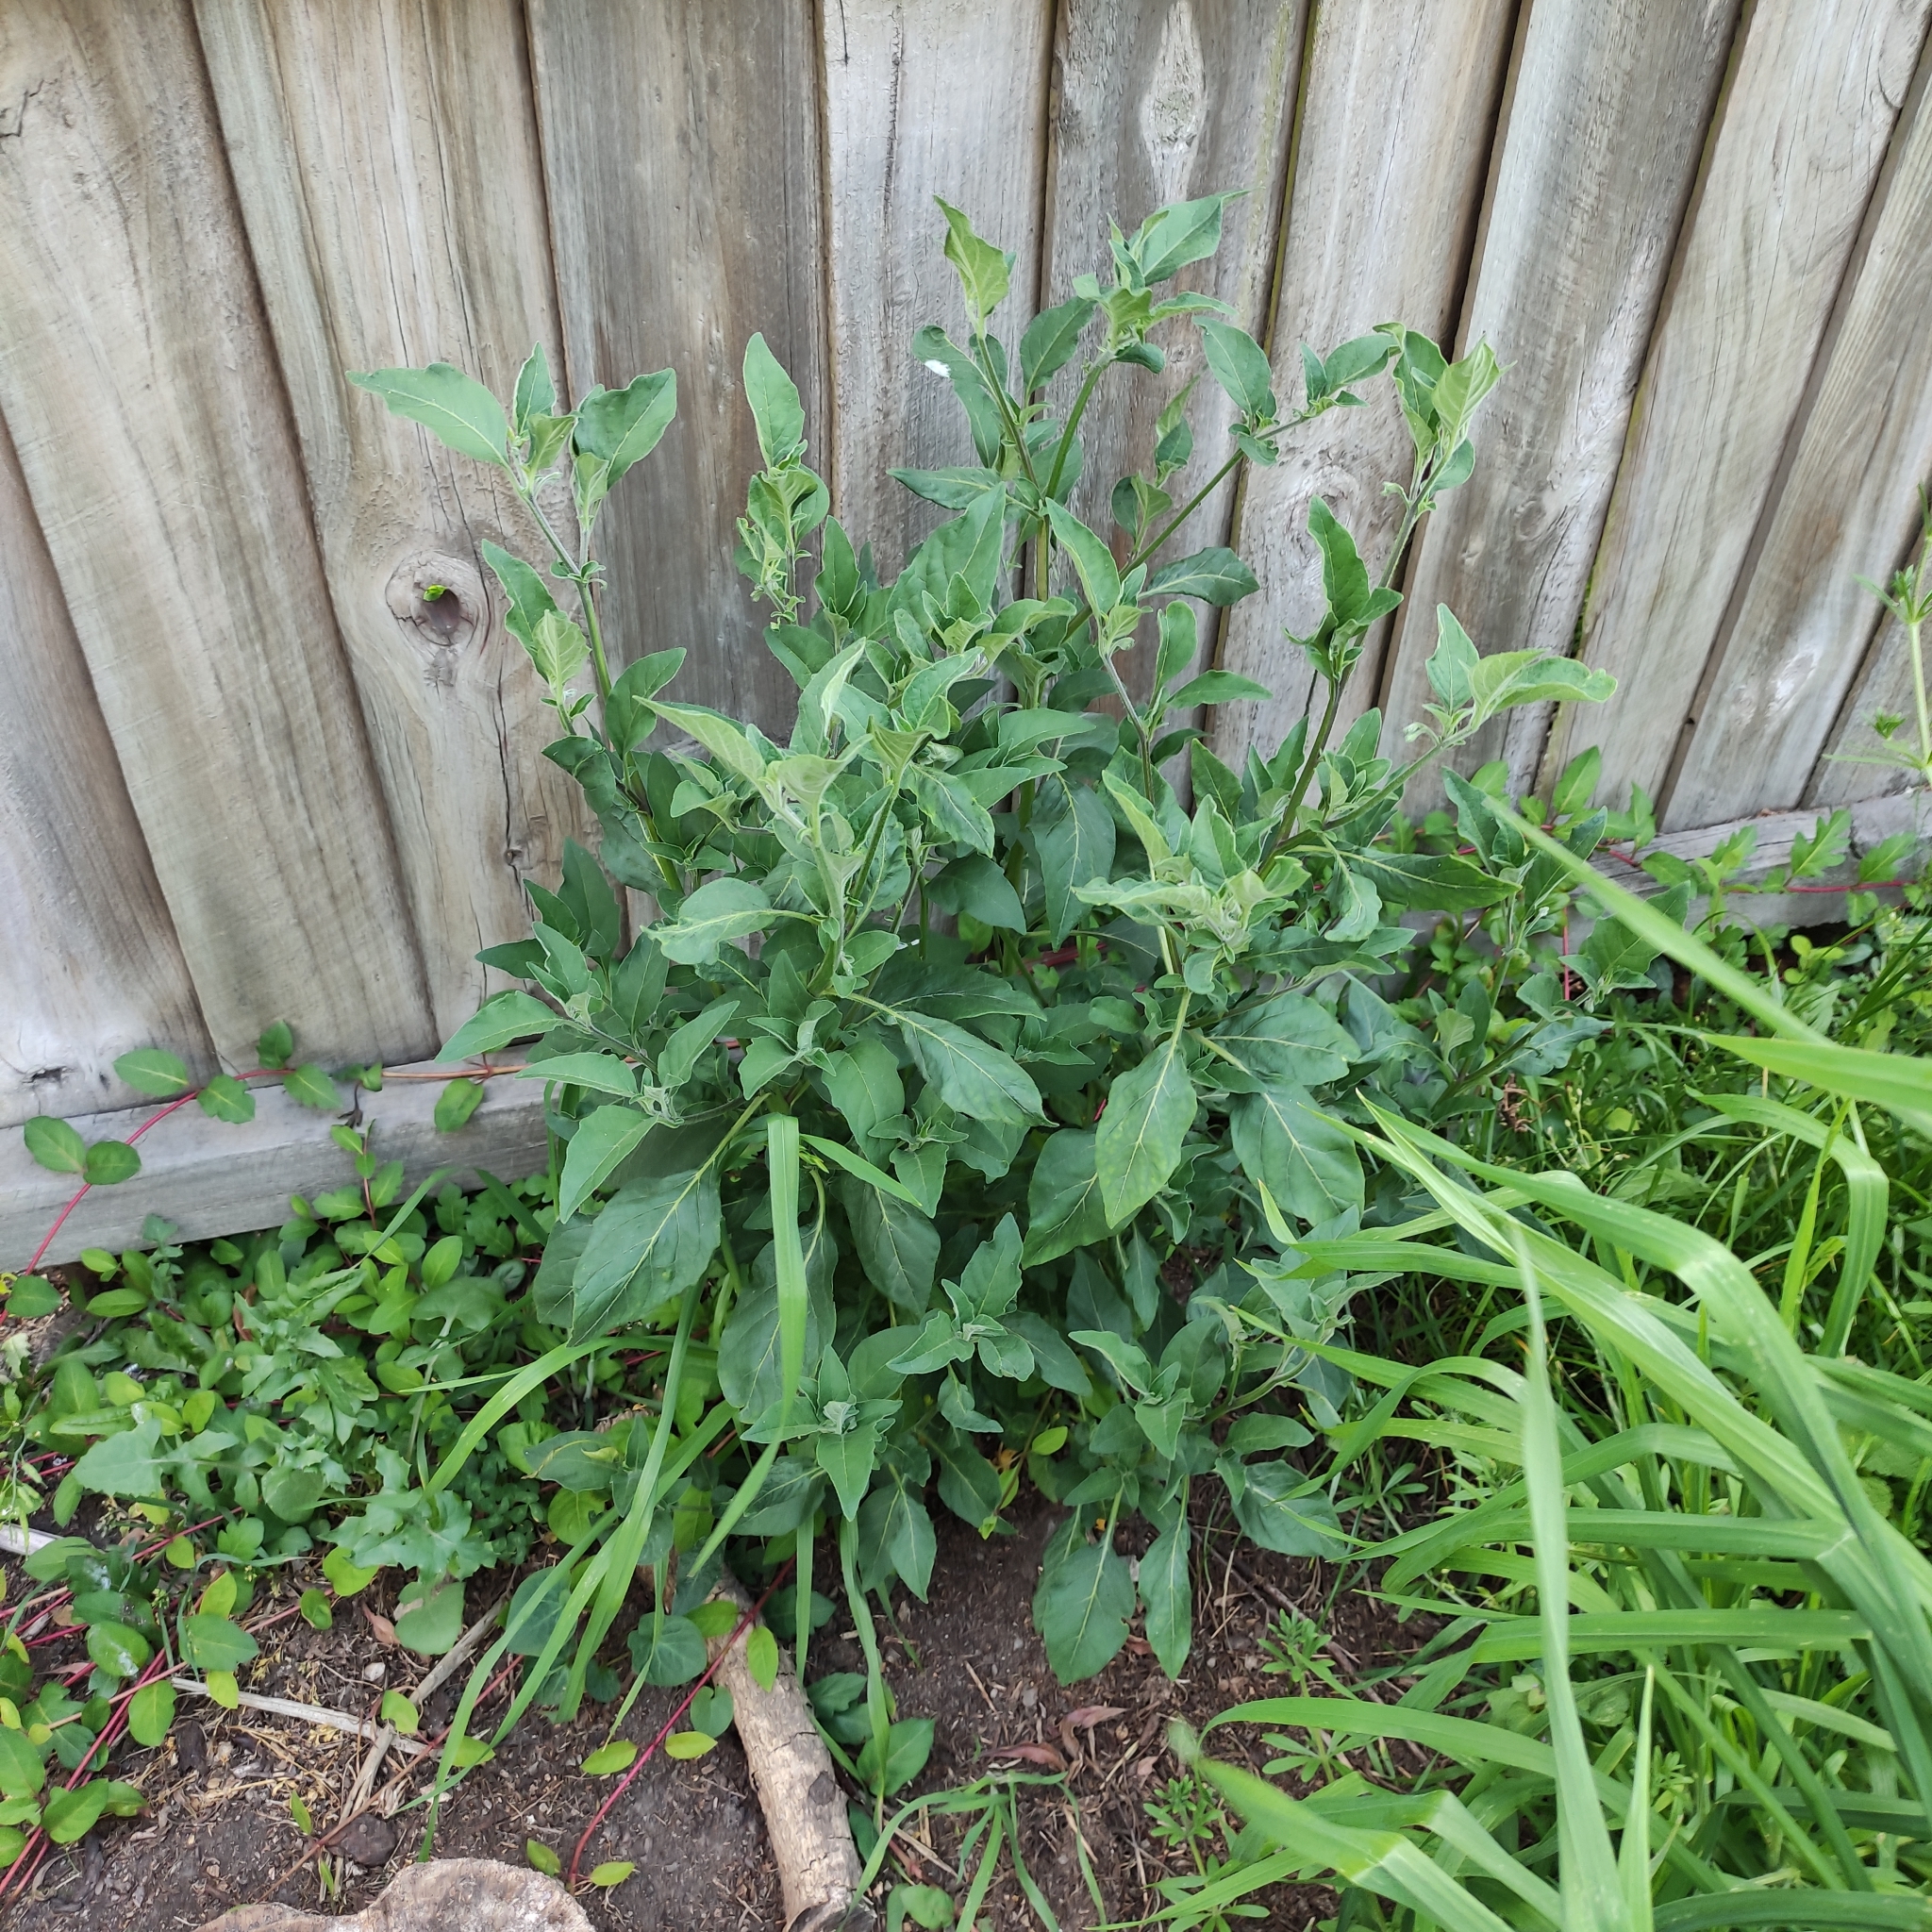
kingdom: Plantae
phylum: Tracheophyta
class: Magnoliopsida
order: Solanales
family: Solanaceae
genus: Solanum
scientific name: Solanum chenopodioides
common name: Tall nightshade
